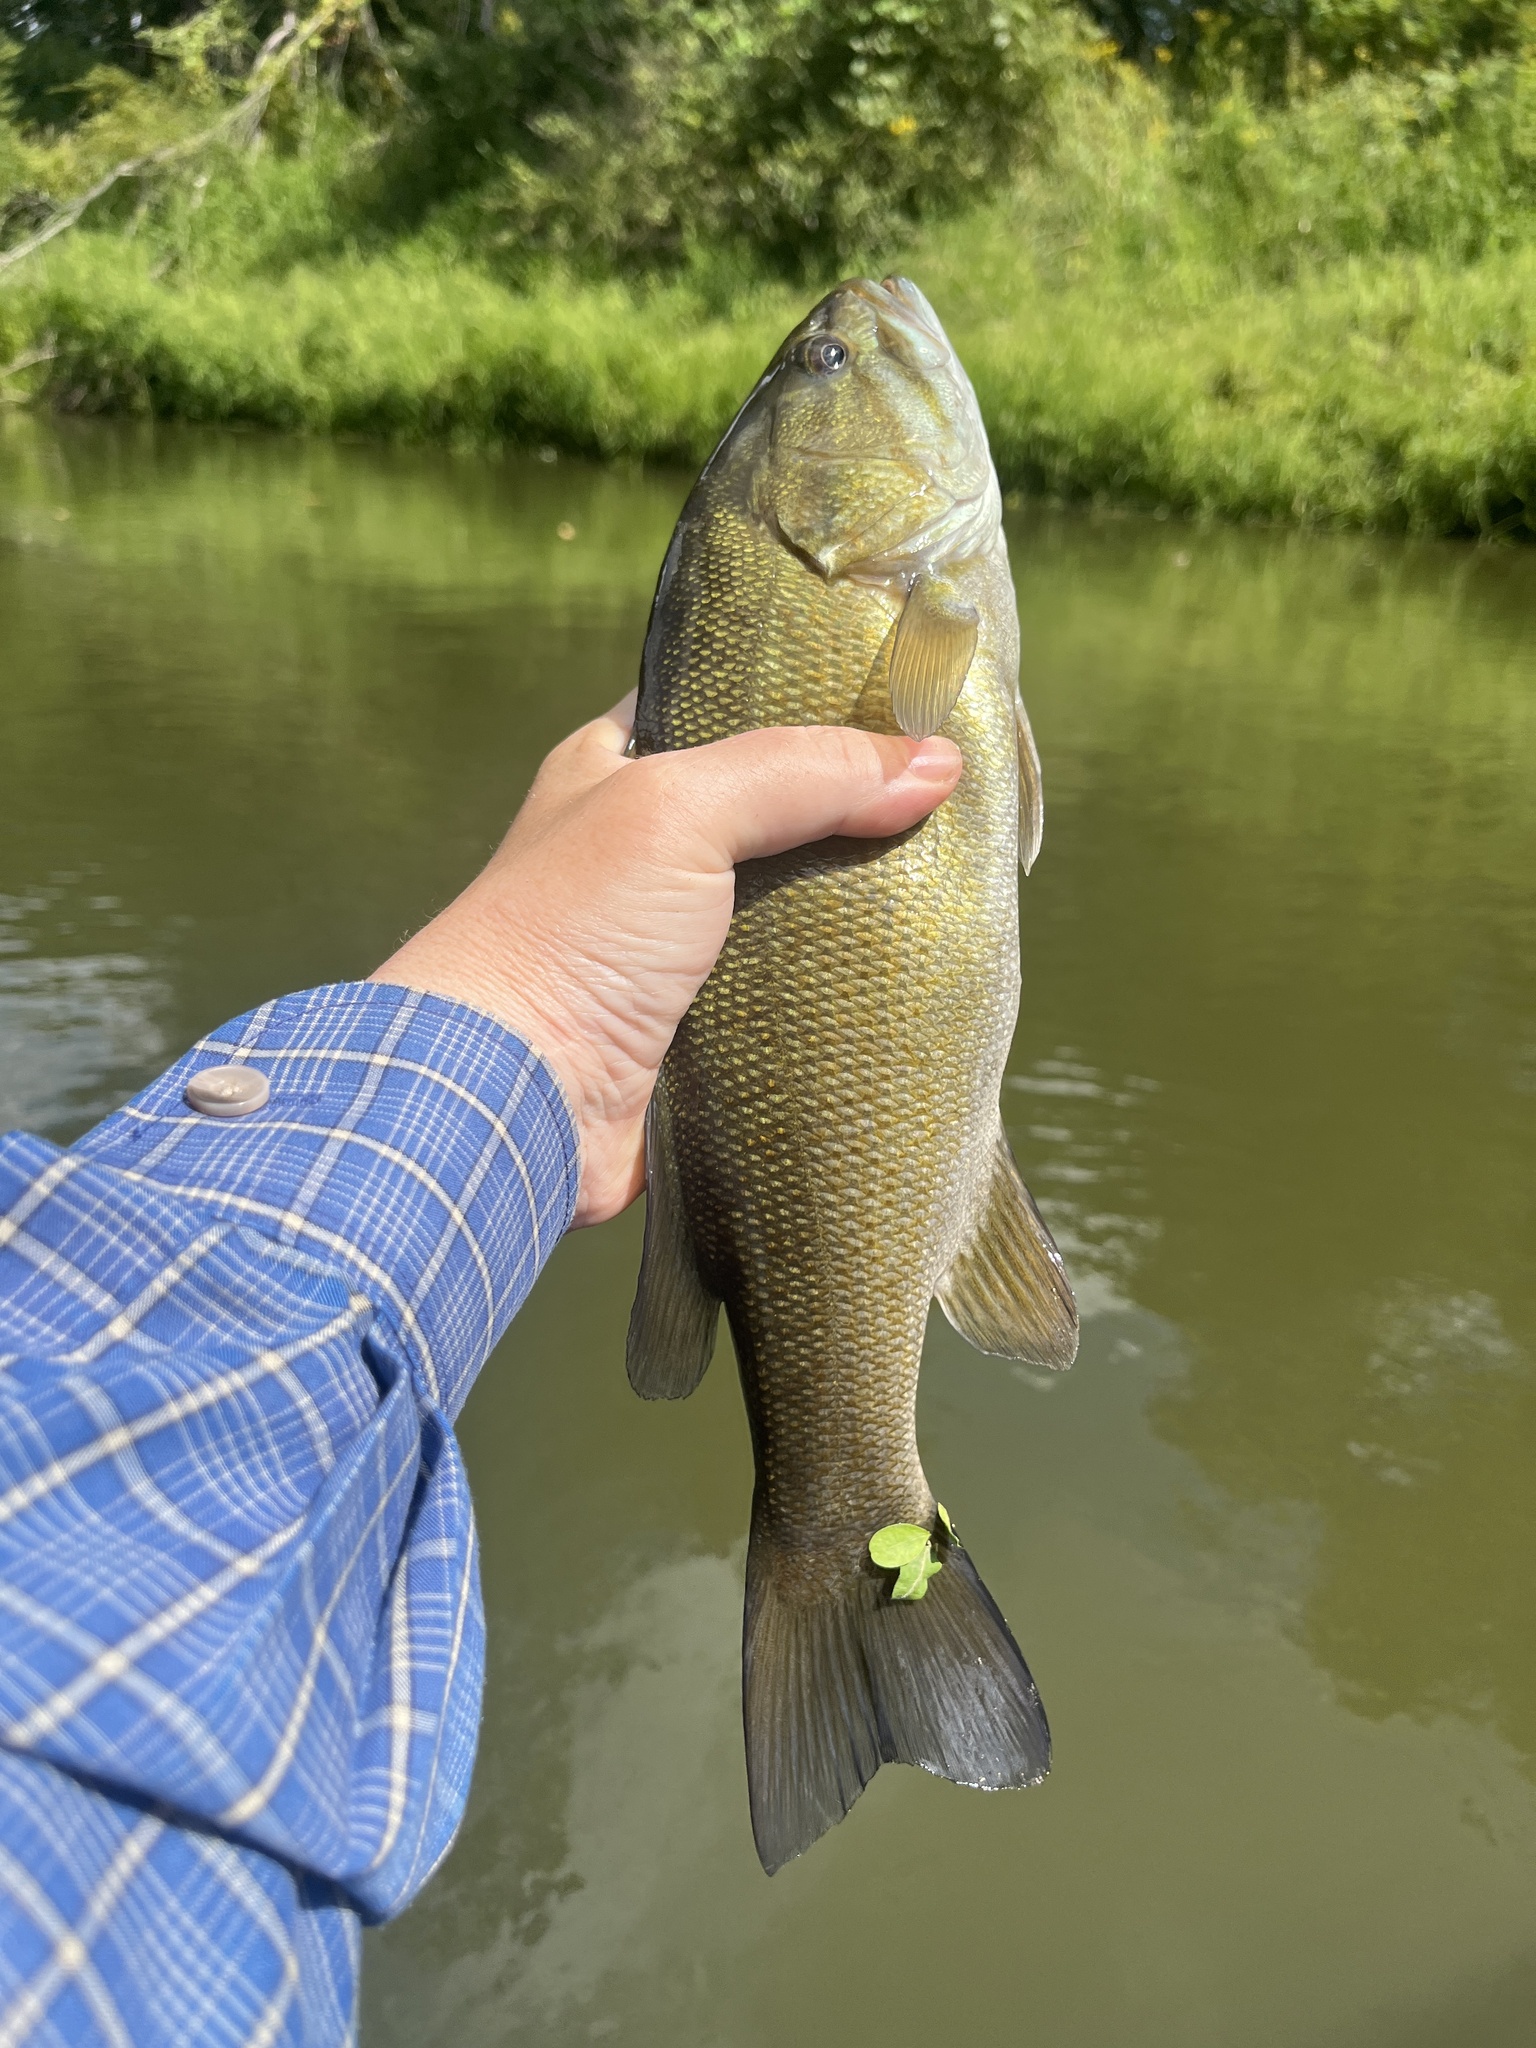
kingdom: Animalia
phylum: Chordata
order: Perciformes
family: Centrarchidae
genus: Micropterus
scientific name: Micropterus dolomieu
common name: Smallmouth bass
